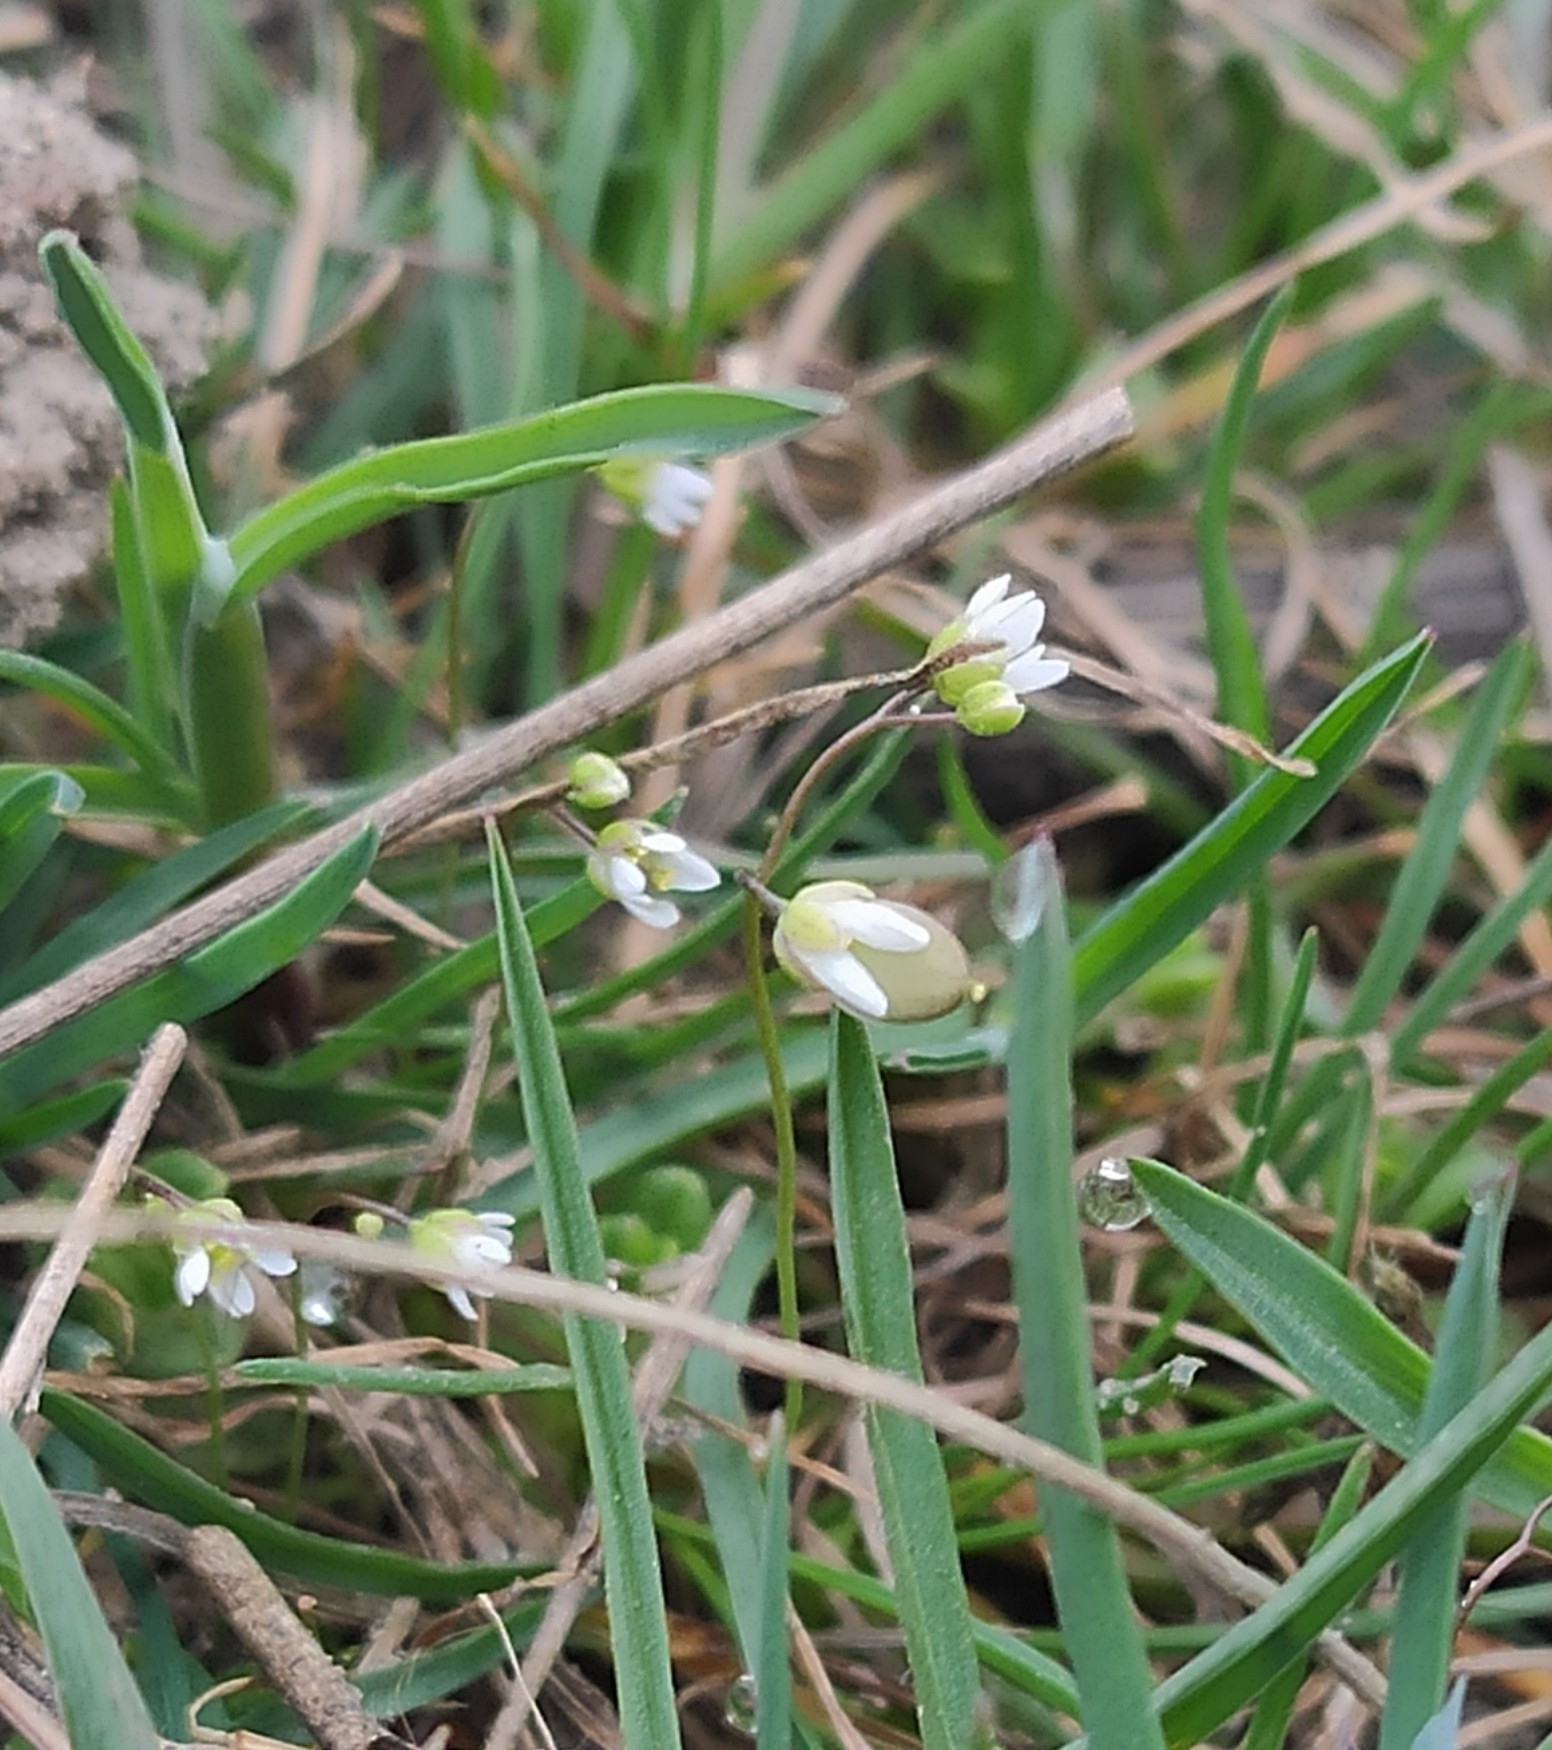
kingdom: Plantae
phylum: Tracheophyta
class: Magnoliopsida
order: Brassicales
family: Brassicaceae
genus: Draba
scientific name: Draba verna
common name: Spring draba
